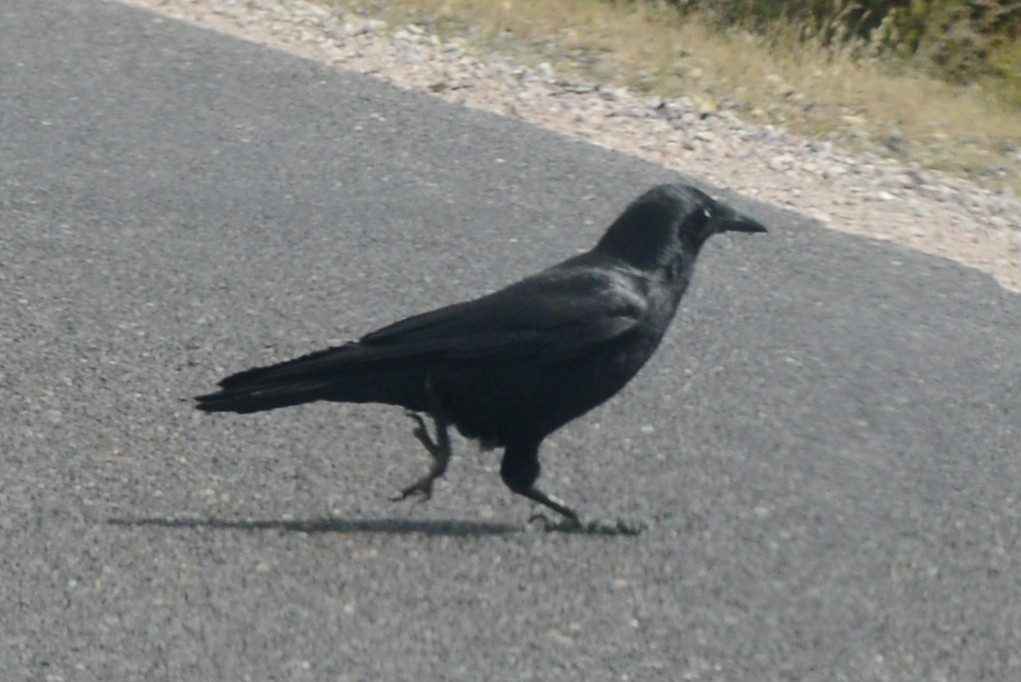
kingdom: Animalia
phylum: Chordata
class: Aves
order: Passeriformes
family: Corvidae
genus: Corvus
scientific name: Corvus tasmanicus
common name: Forest raven
